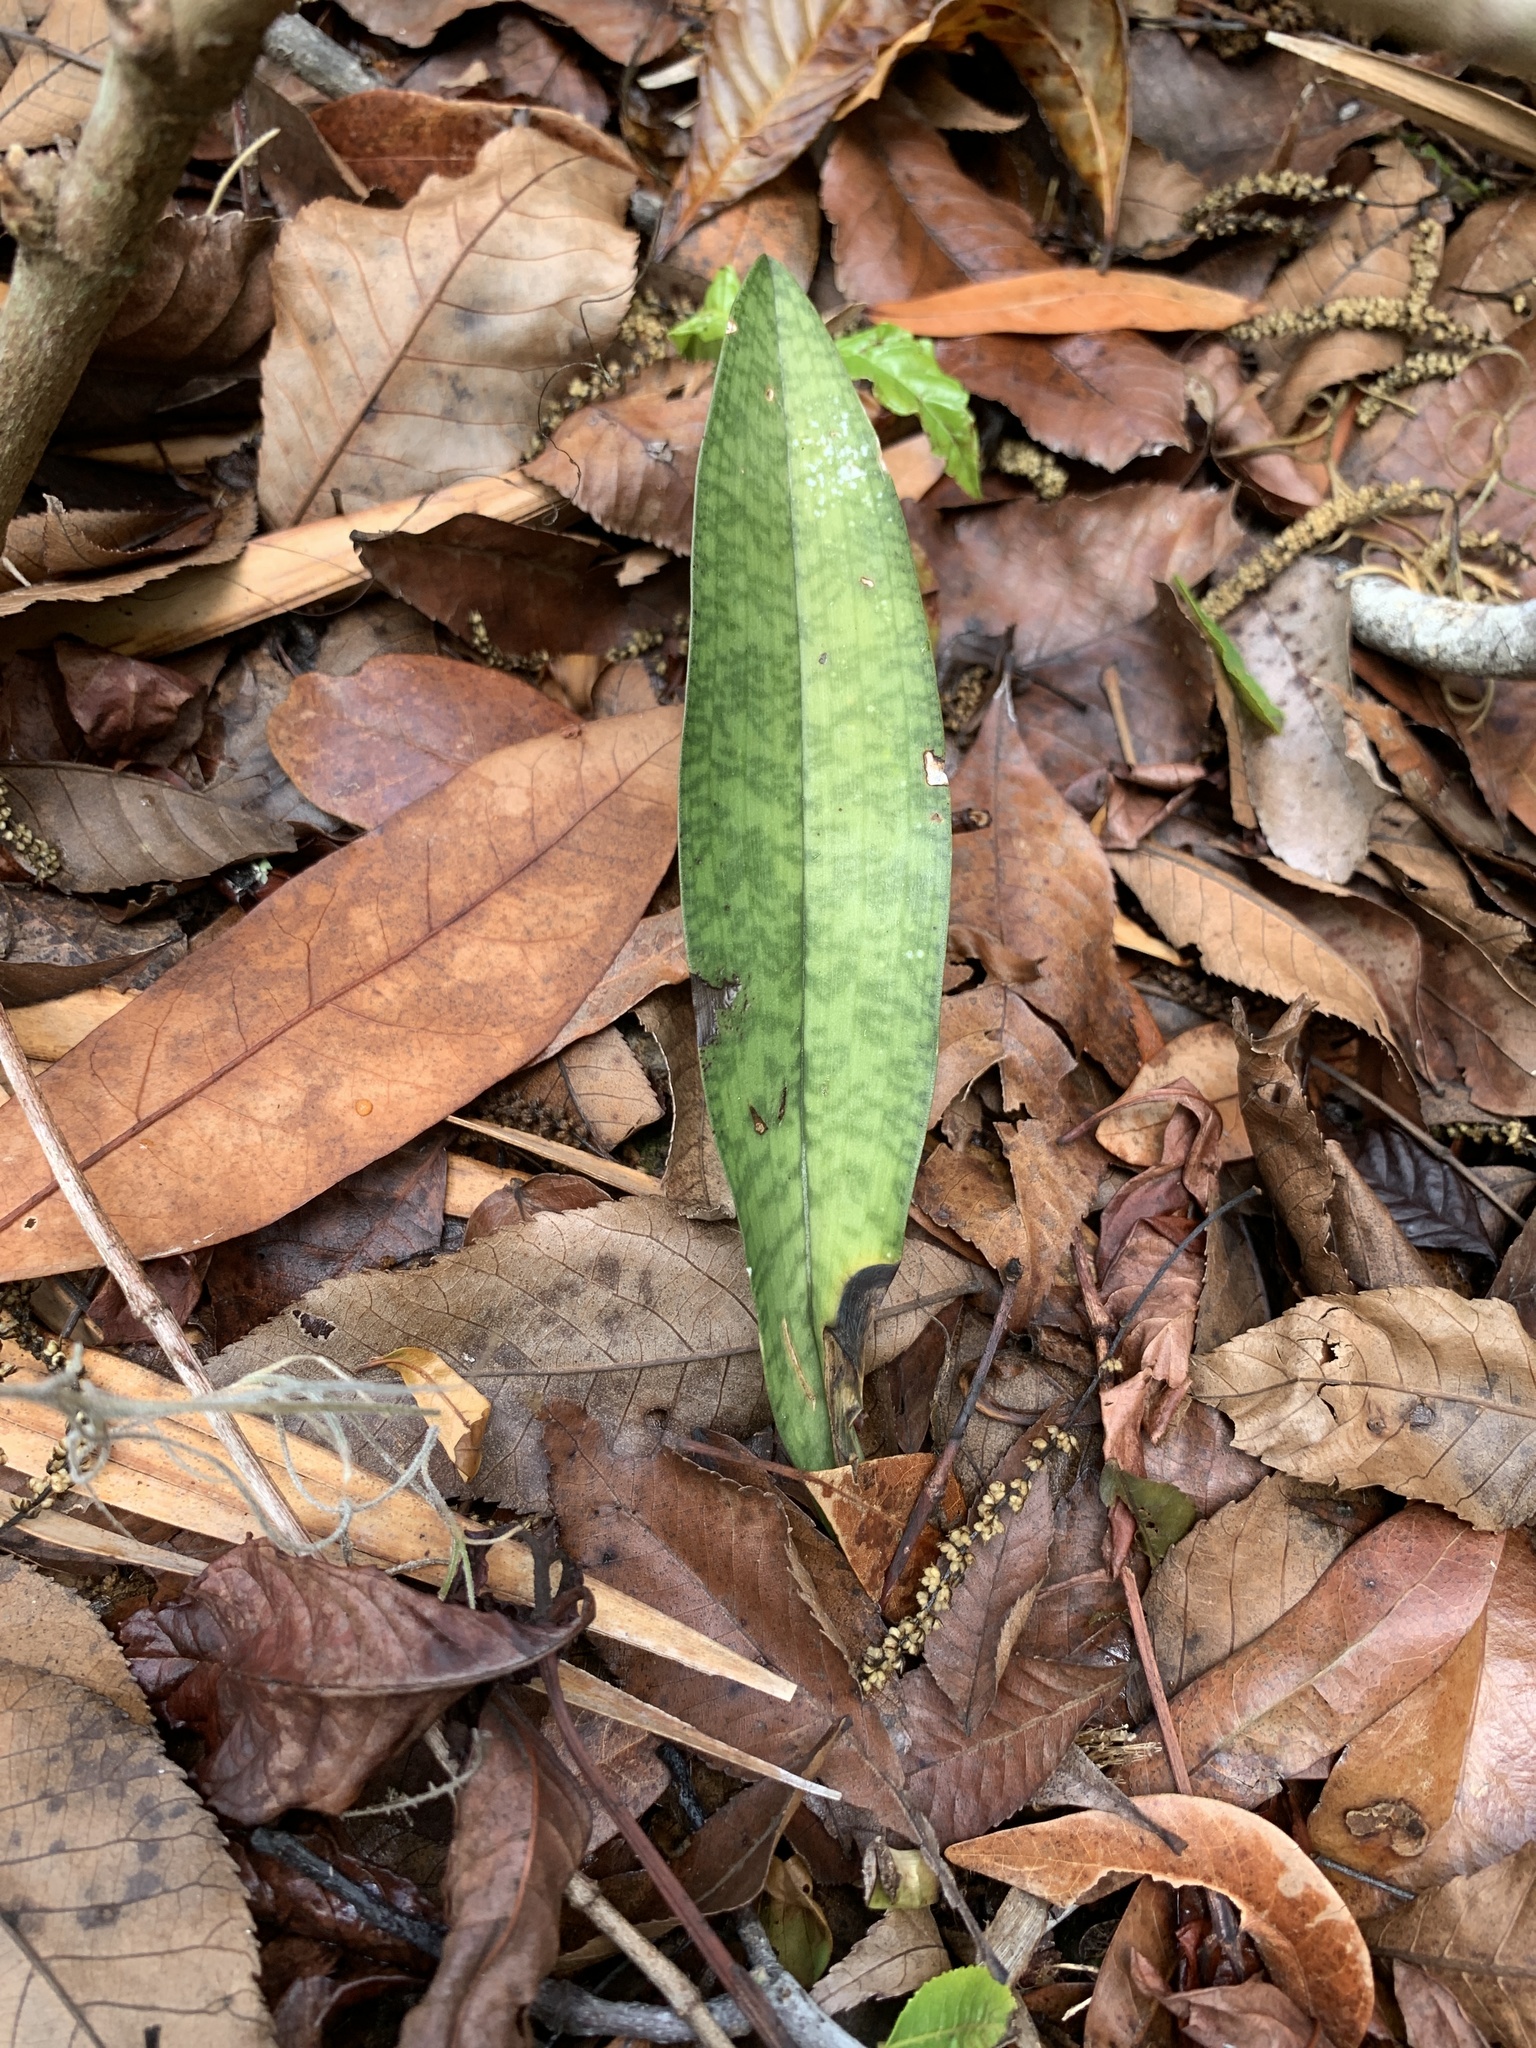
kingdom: Plantae
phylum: Tracheophyta
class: Liliopsida
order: Asparagales
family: Orchidaceae
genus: Eulophia
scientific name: Eulophia maculata
